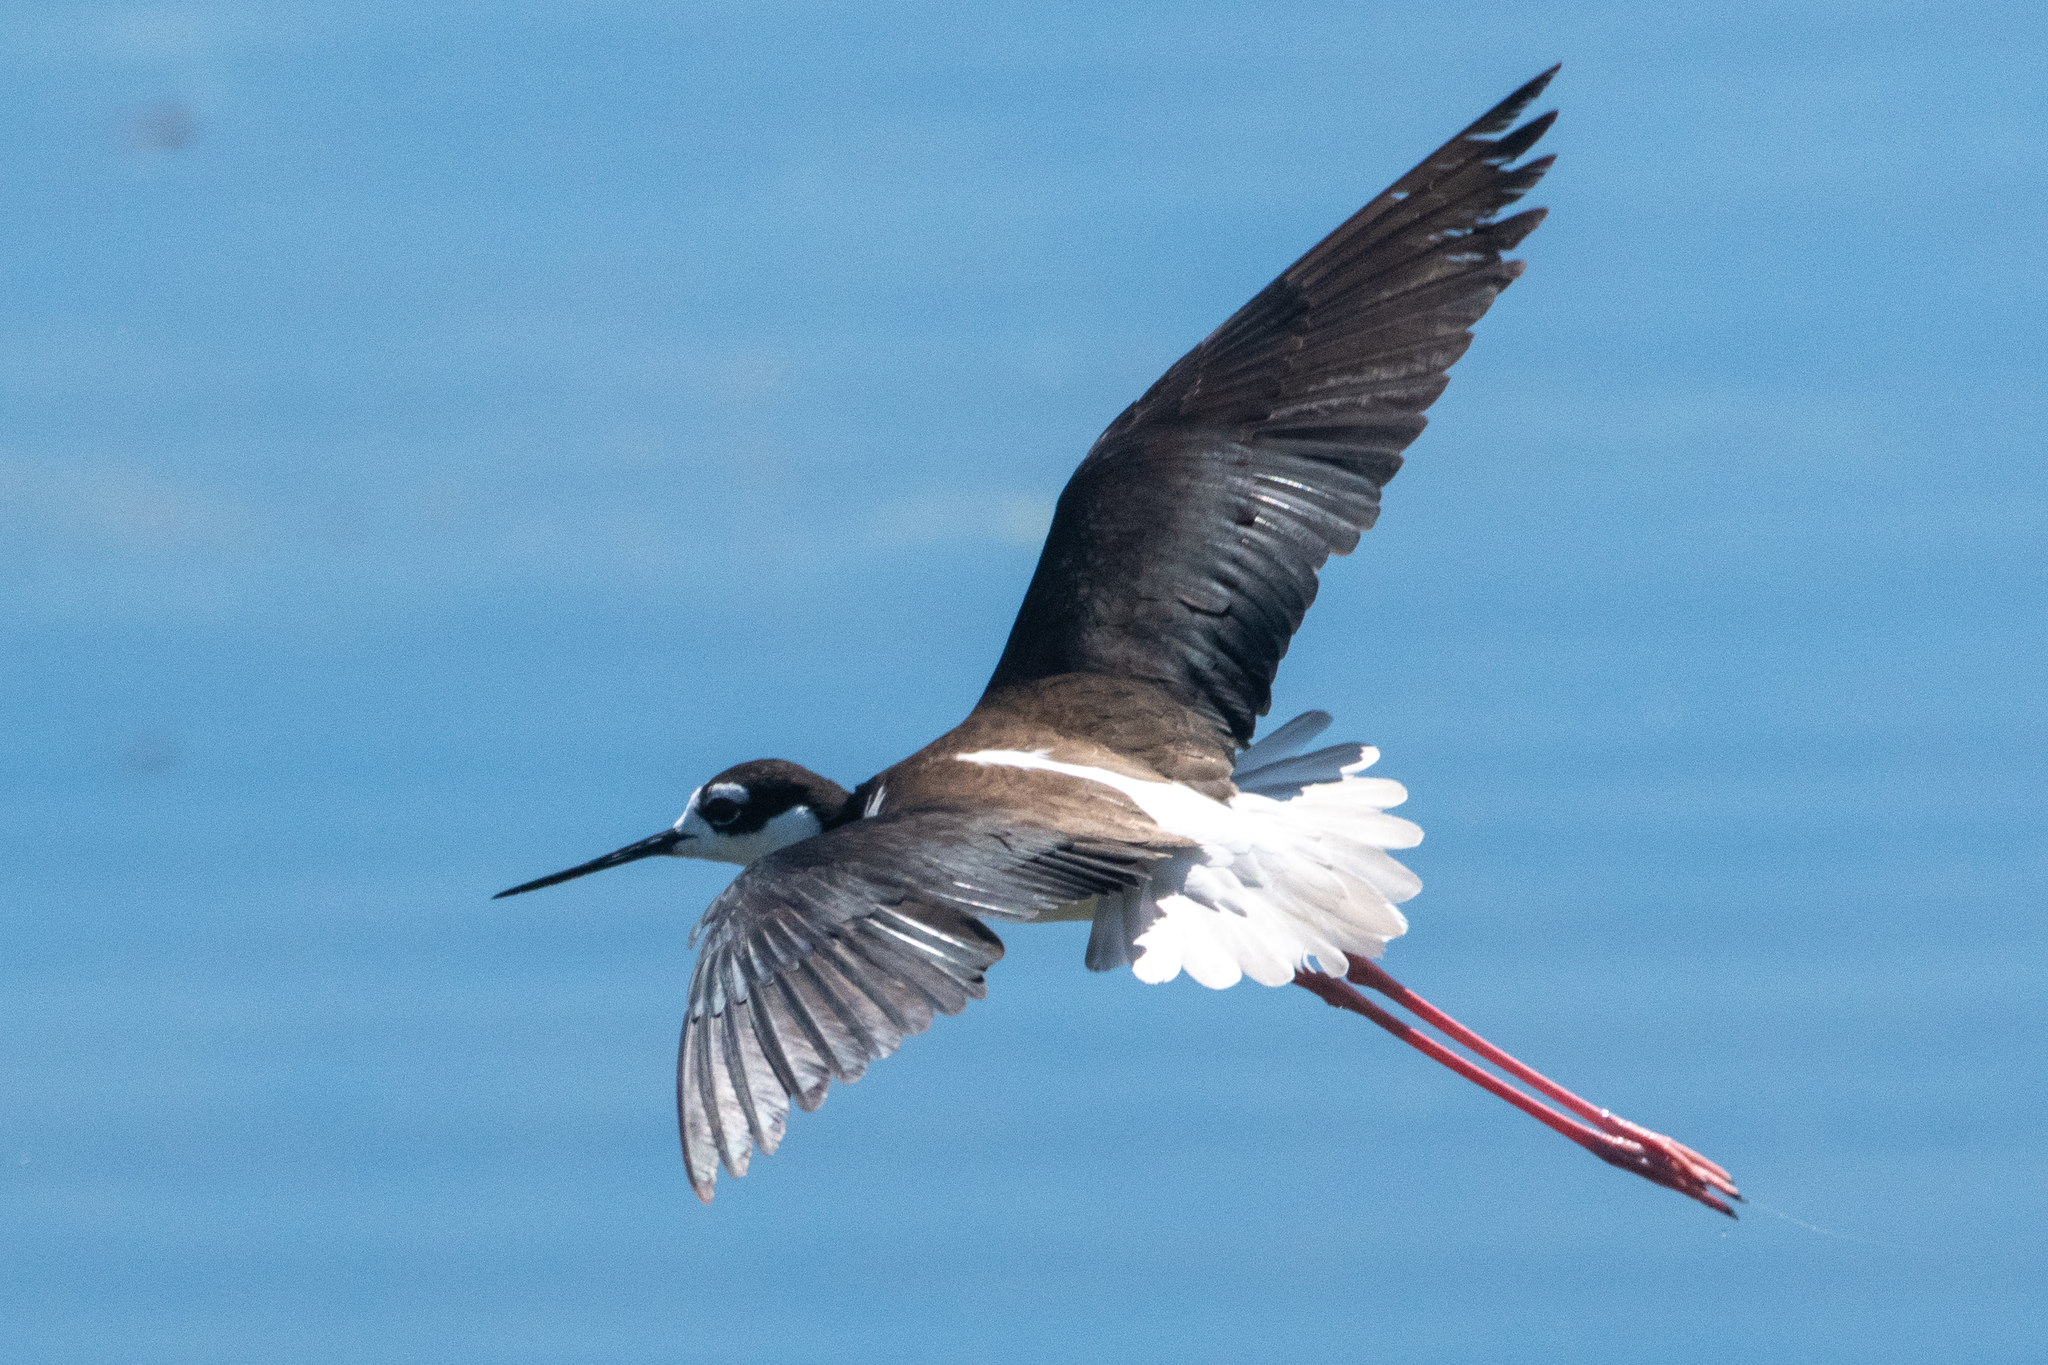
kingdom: Animalia
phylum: Chordata
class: Aves
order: Charadriiformes
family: Recurvirostridae
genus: Himantopus
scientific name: Himantopus mexicanus
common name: Black-necked stilt
